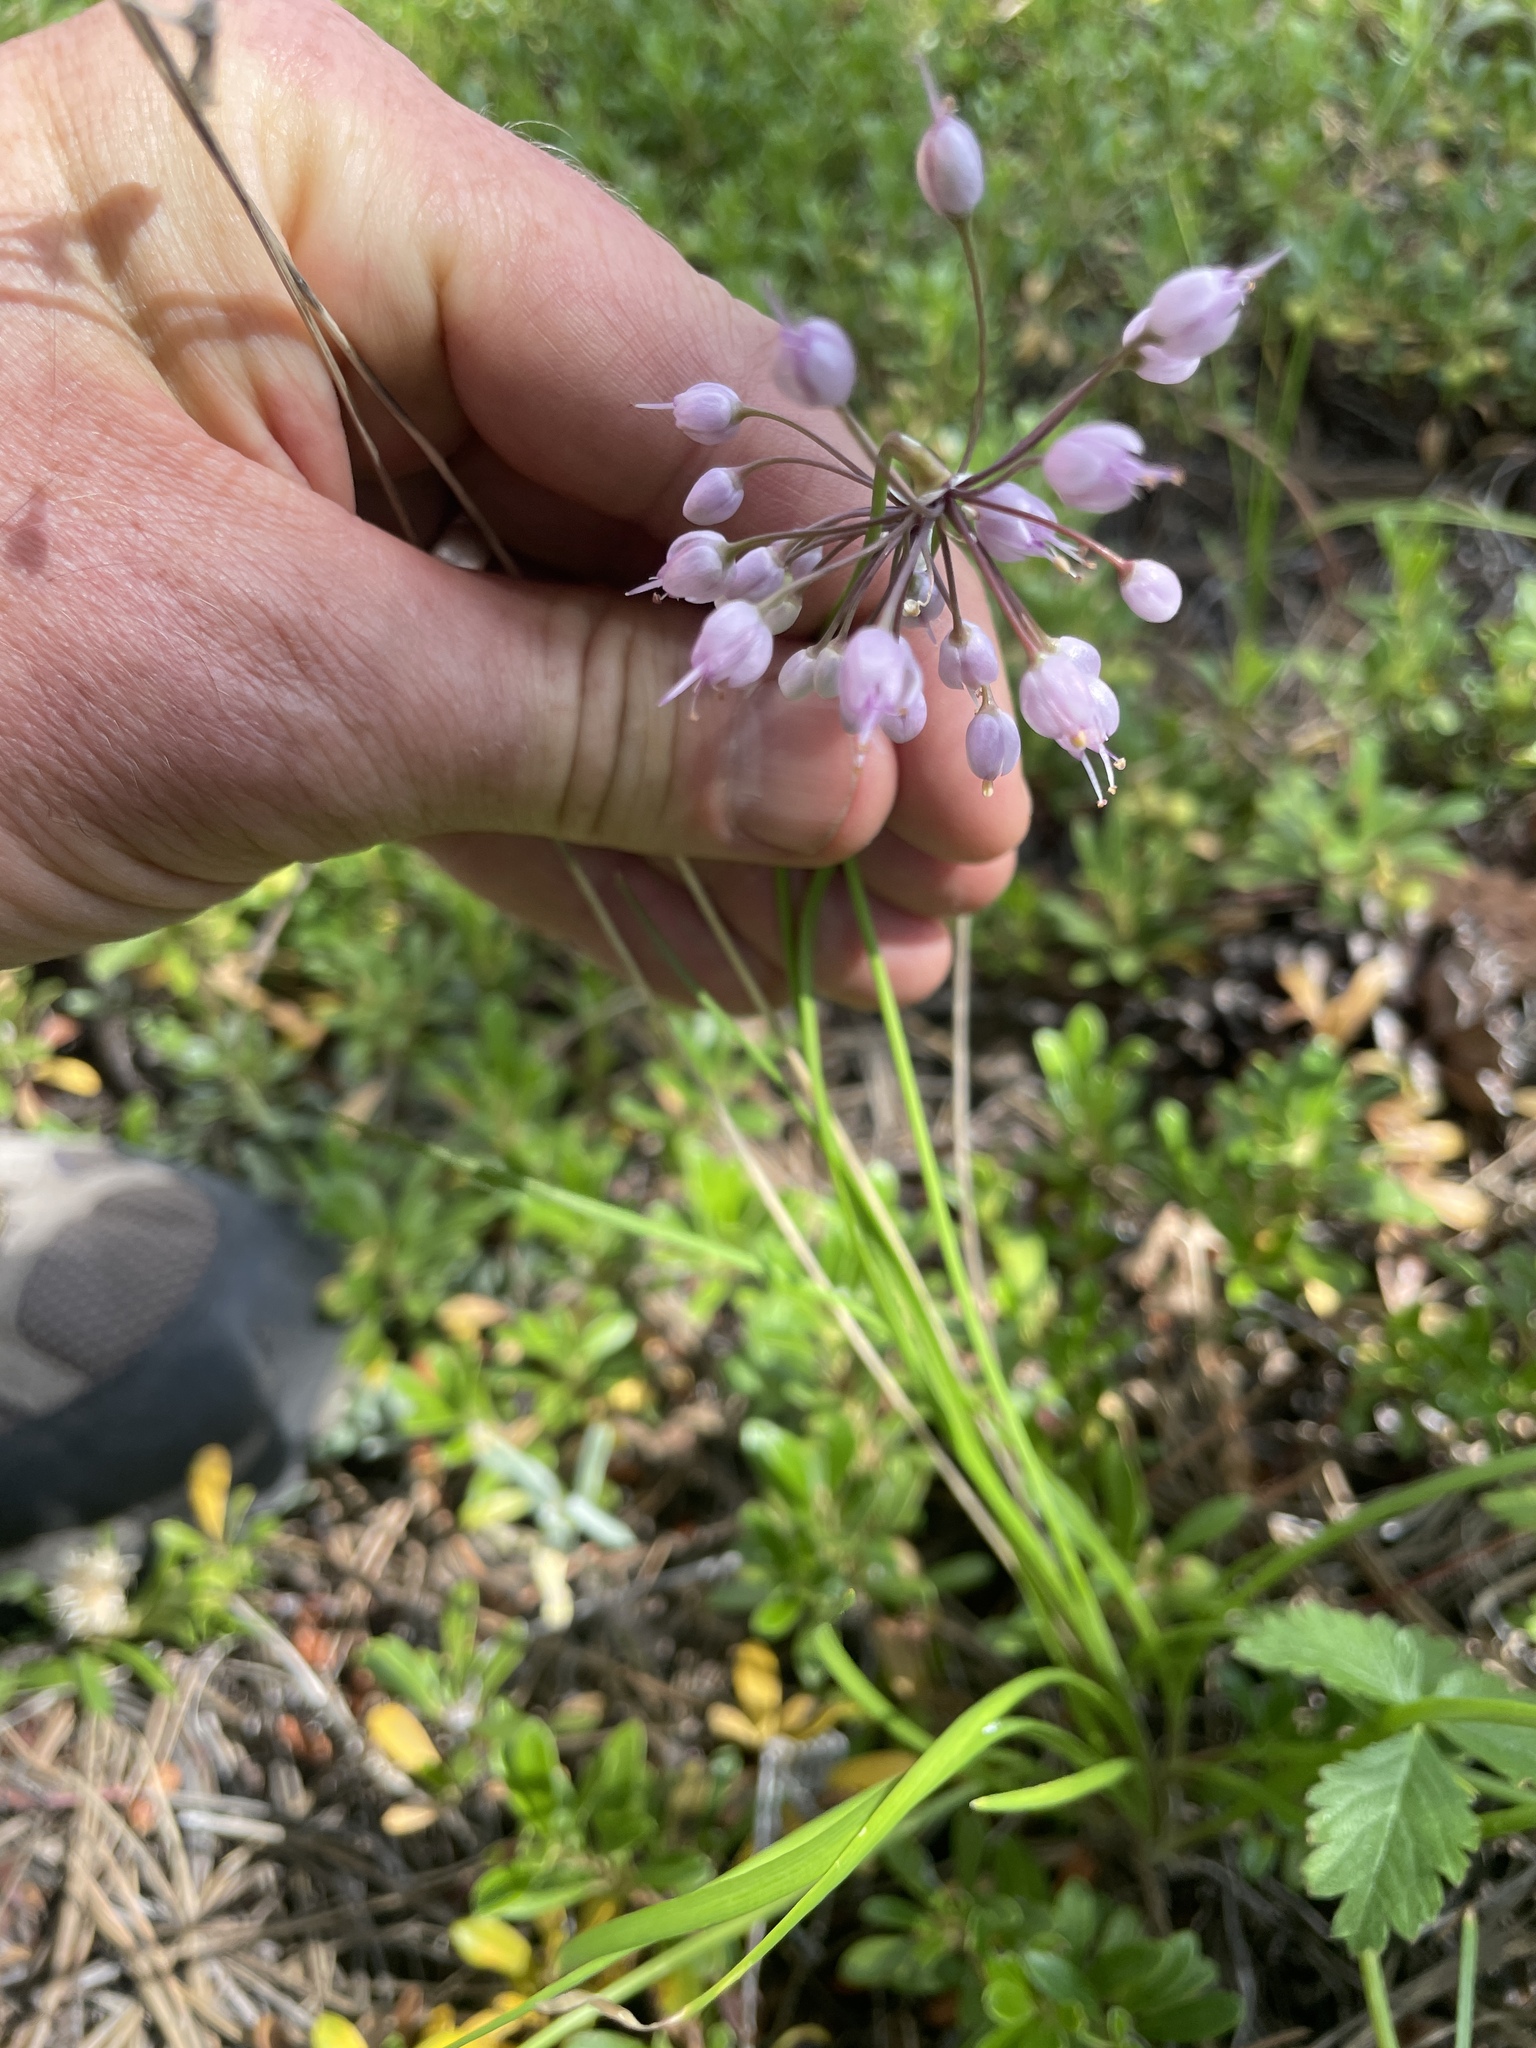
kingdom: Plantae
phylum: Tracheophyta
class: Liliopsida
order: Asparagales
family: Amaryllidaceae
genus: Allium
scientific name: Allium cernuum
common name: Nodding onion
